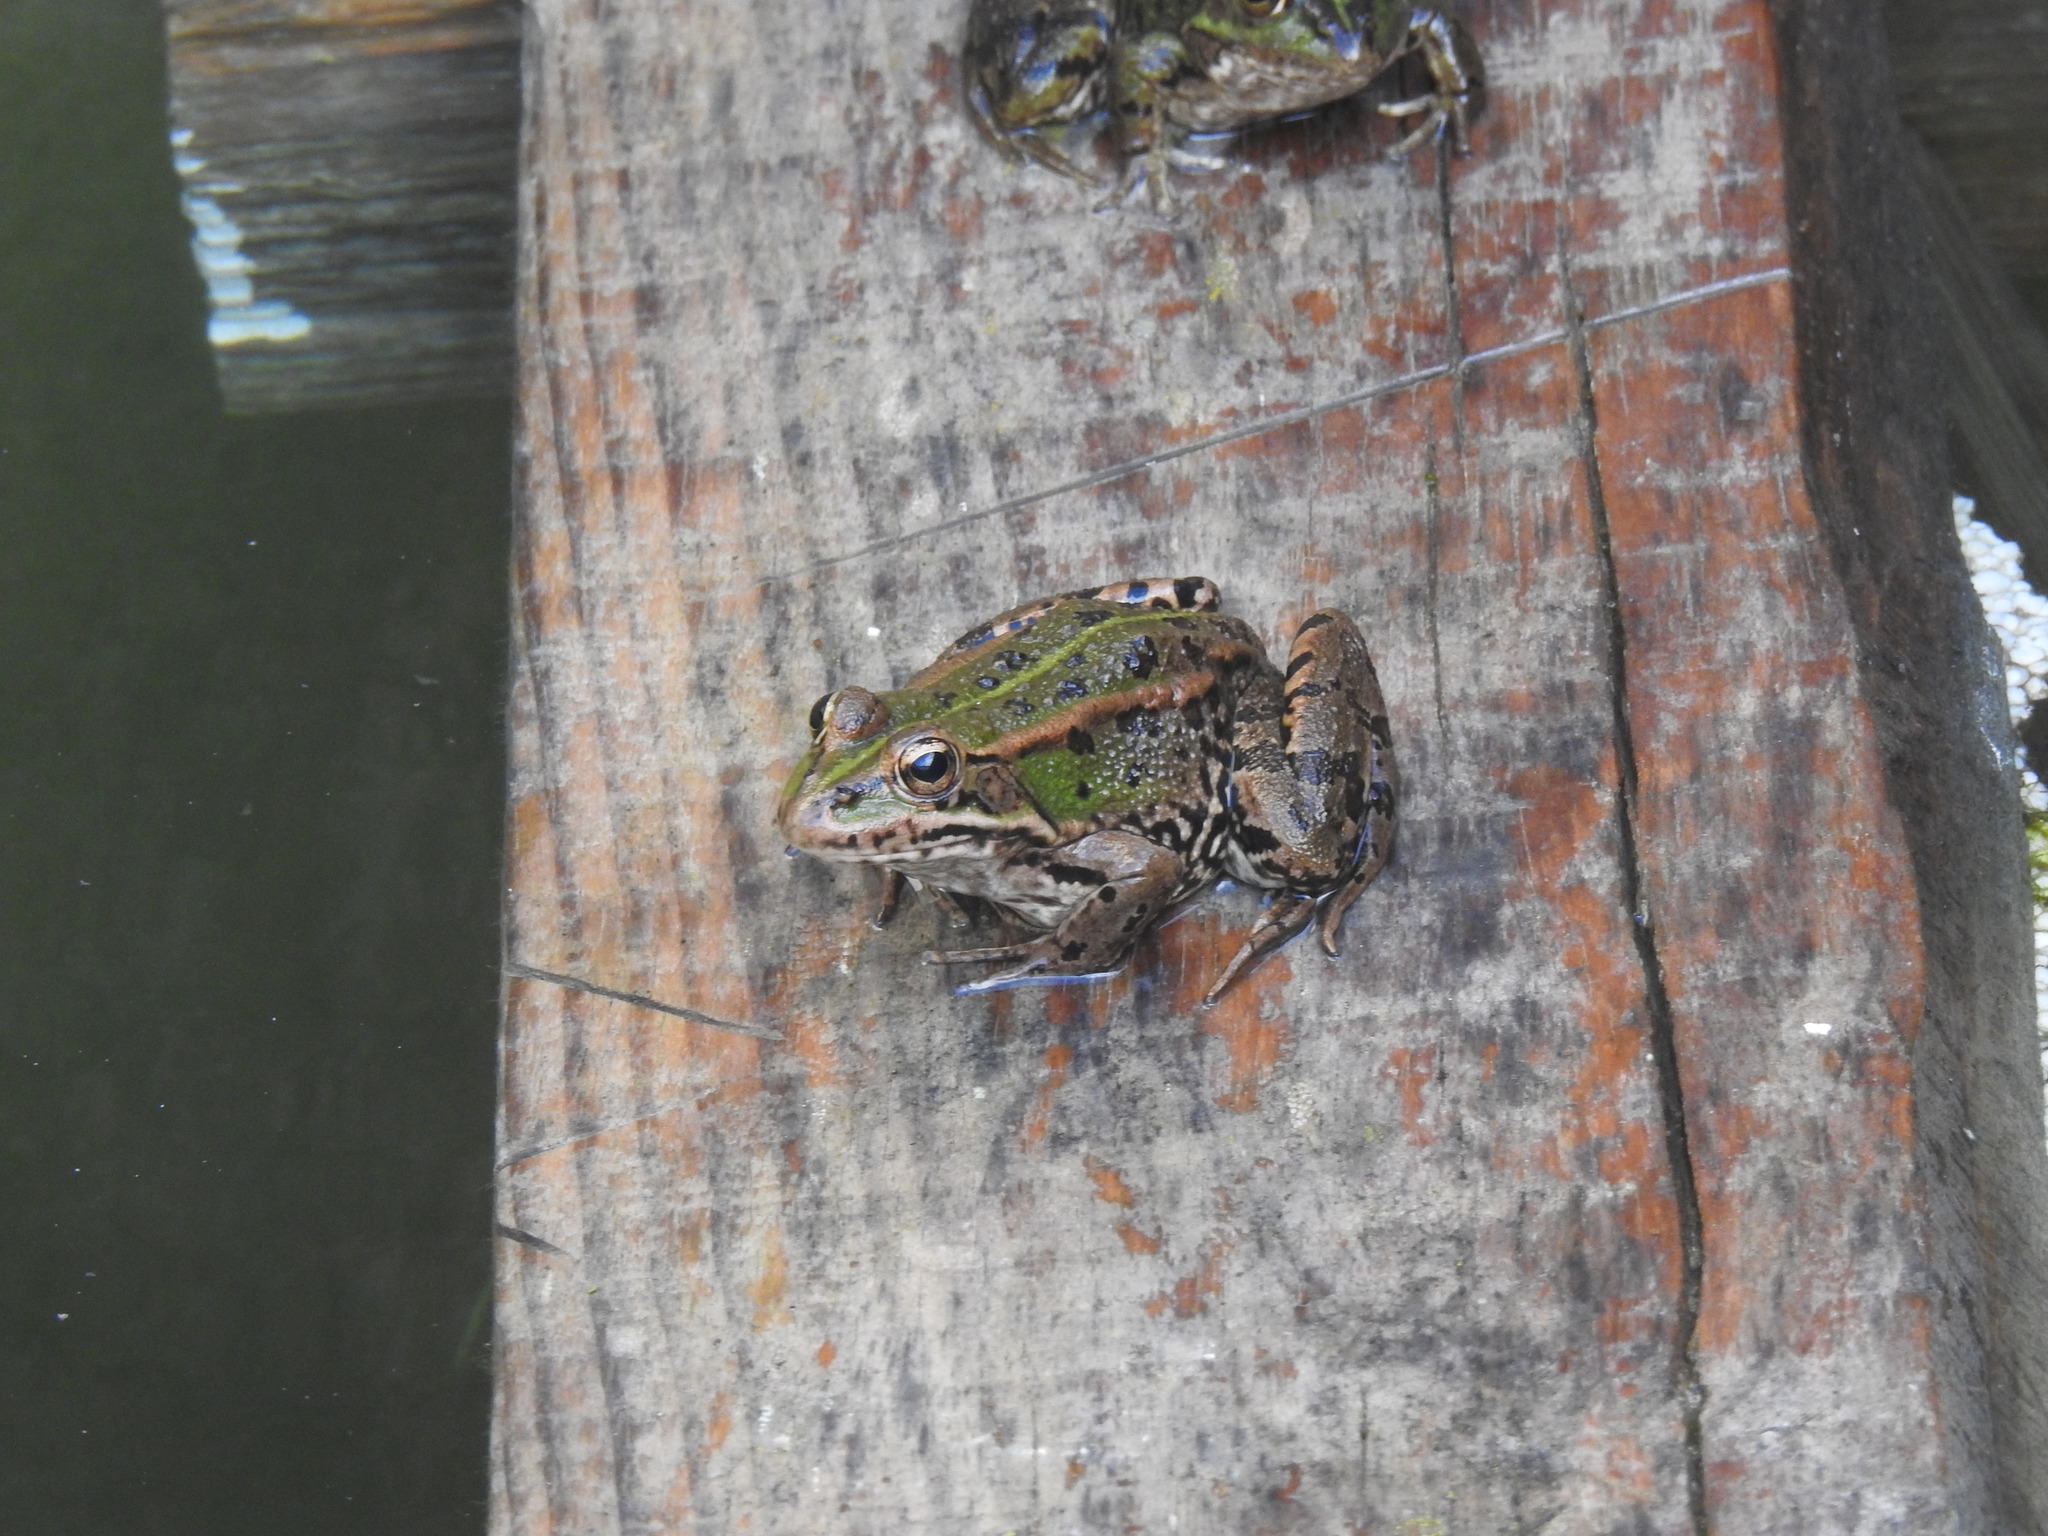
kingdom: Animalia
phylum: Chordata
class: Amphibia
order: Anura
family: Ranidae
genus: Pelophylax
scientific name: Pelophylax perezi
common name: Perez's frog
